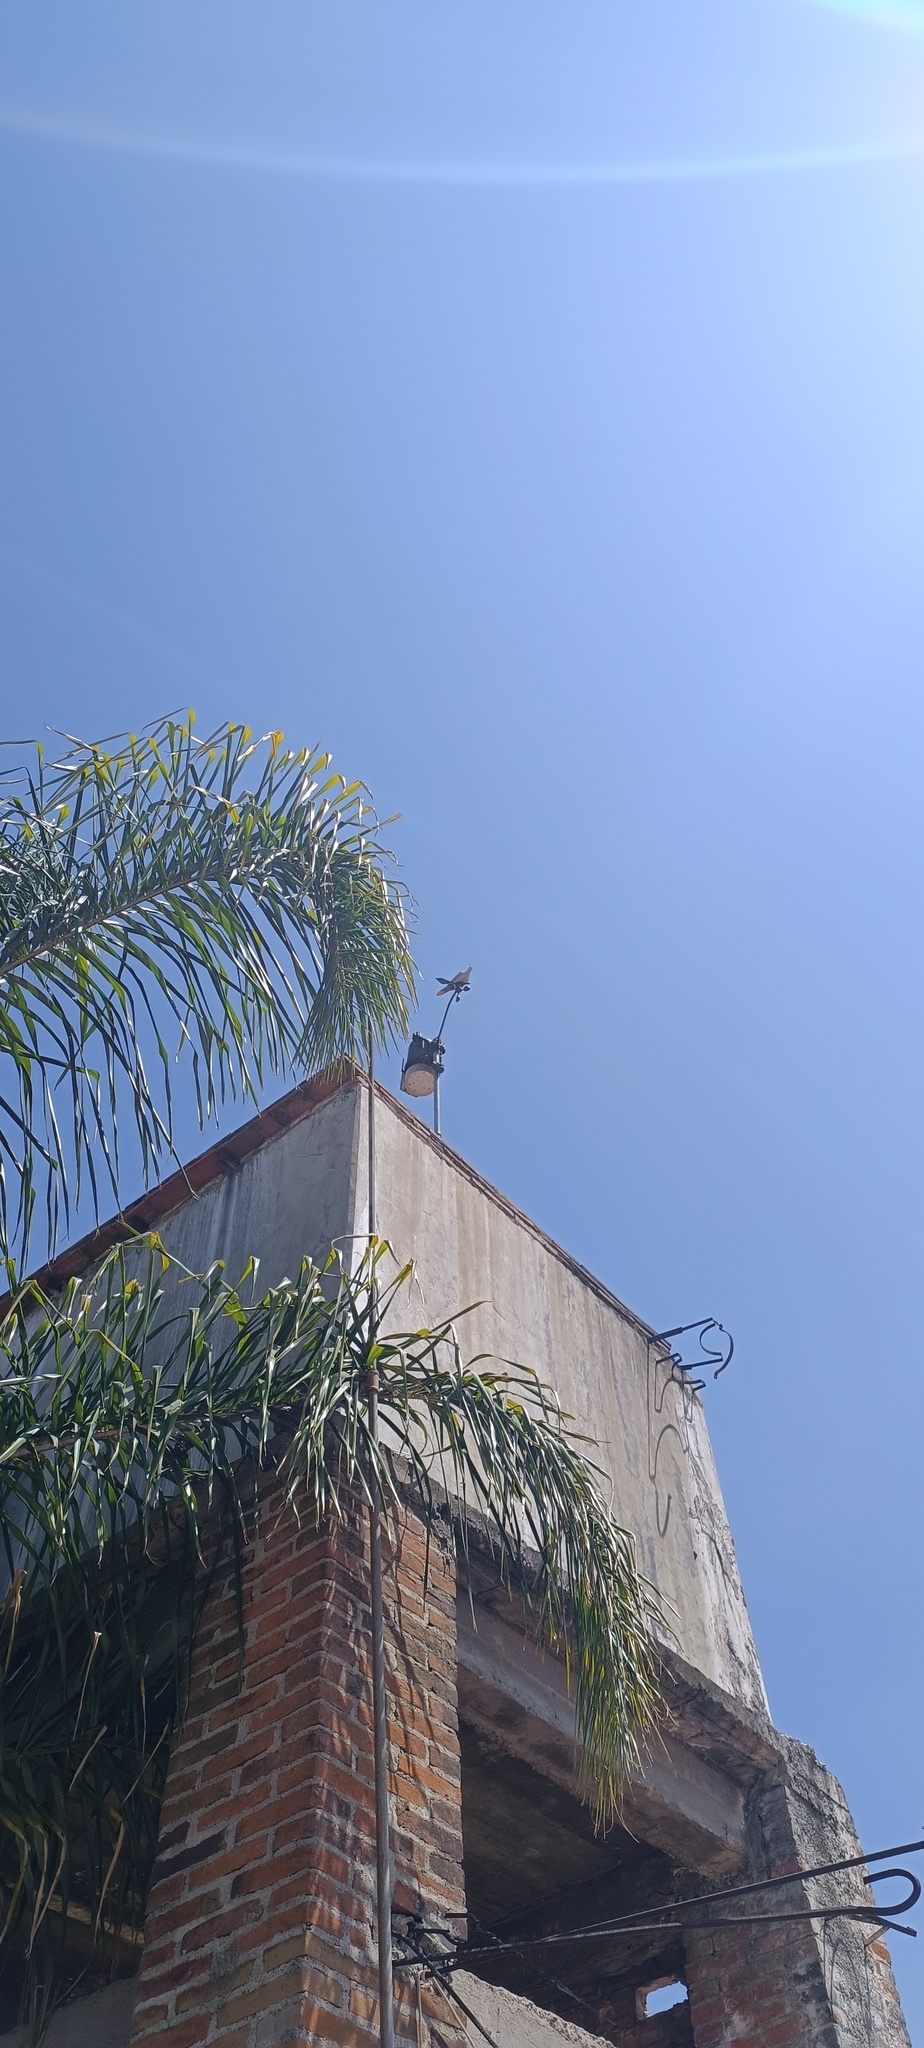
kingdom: Animalia
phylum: Chordata
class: Aves
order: Columbiformes
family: Columbidae
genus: Streptopelia
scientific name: Streptopelia decaocto
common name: Eurasian collared dove
